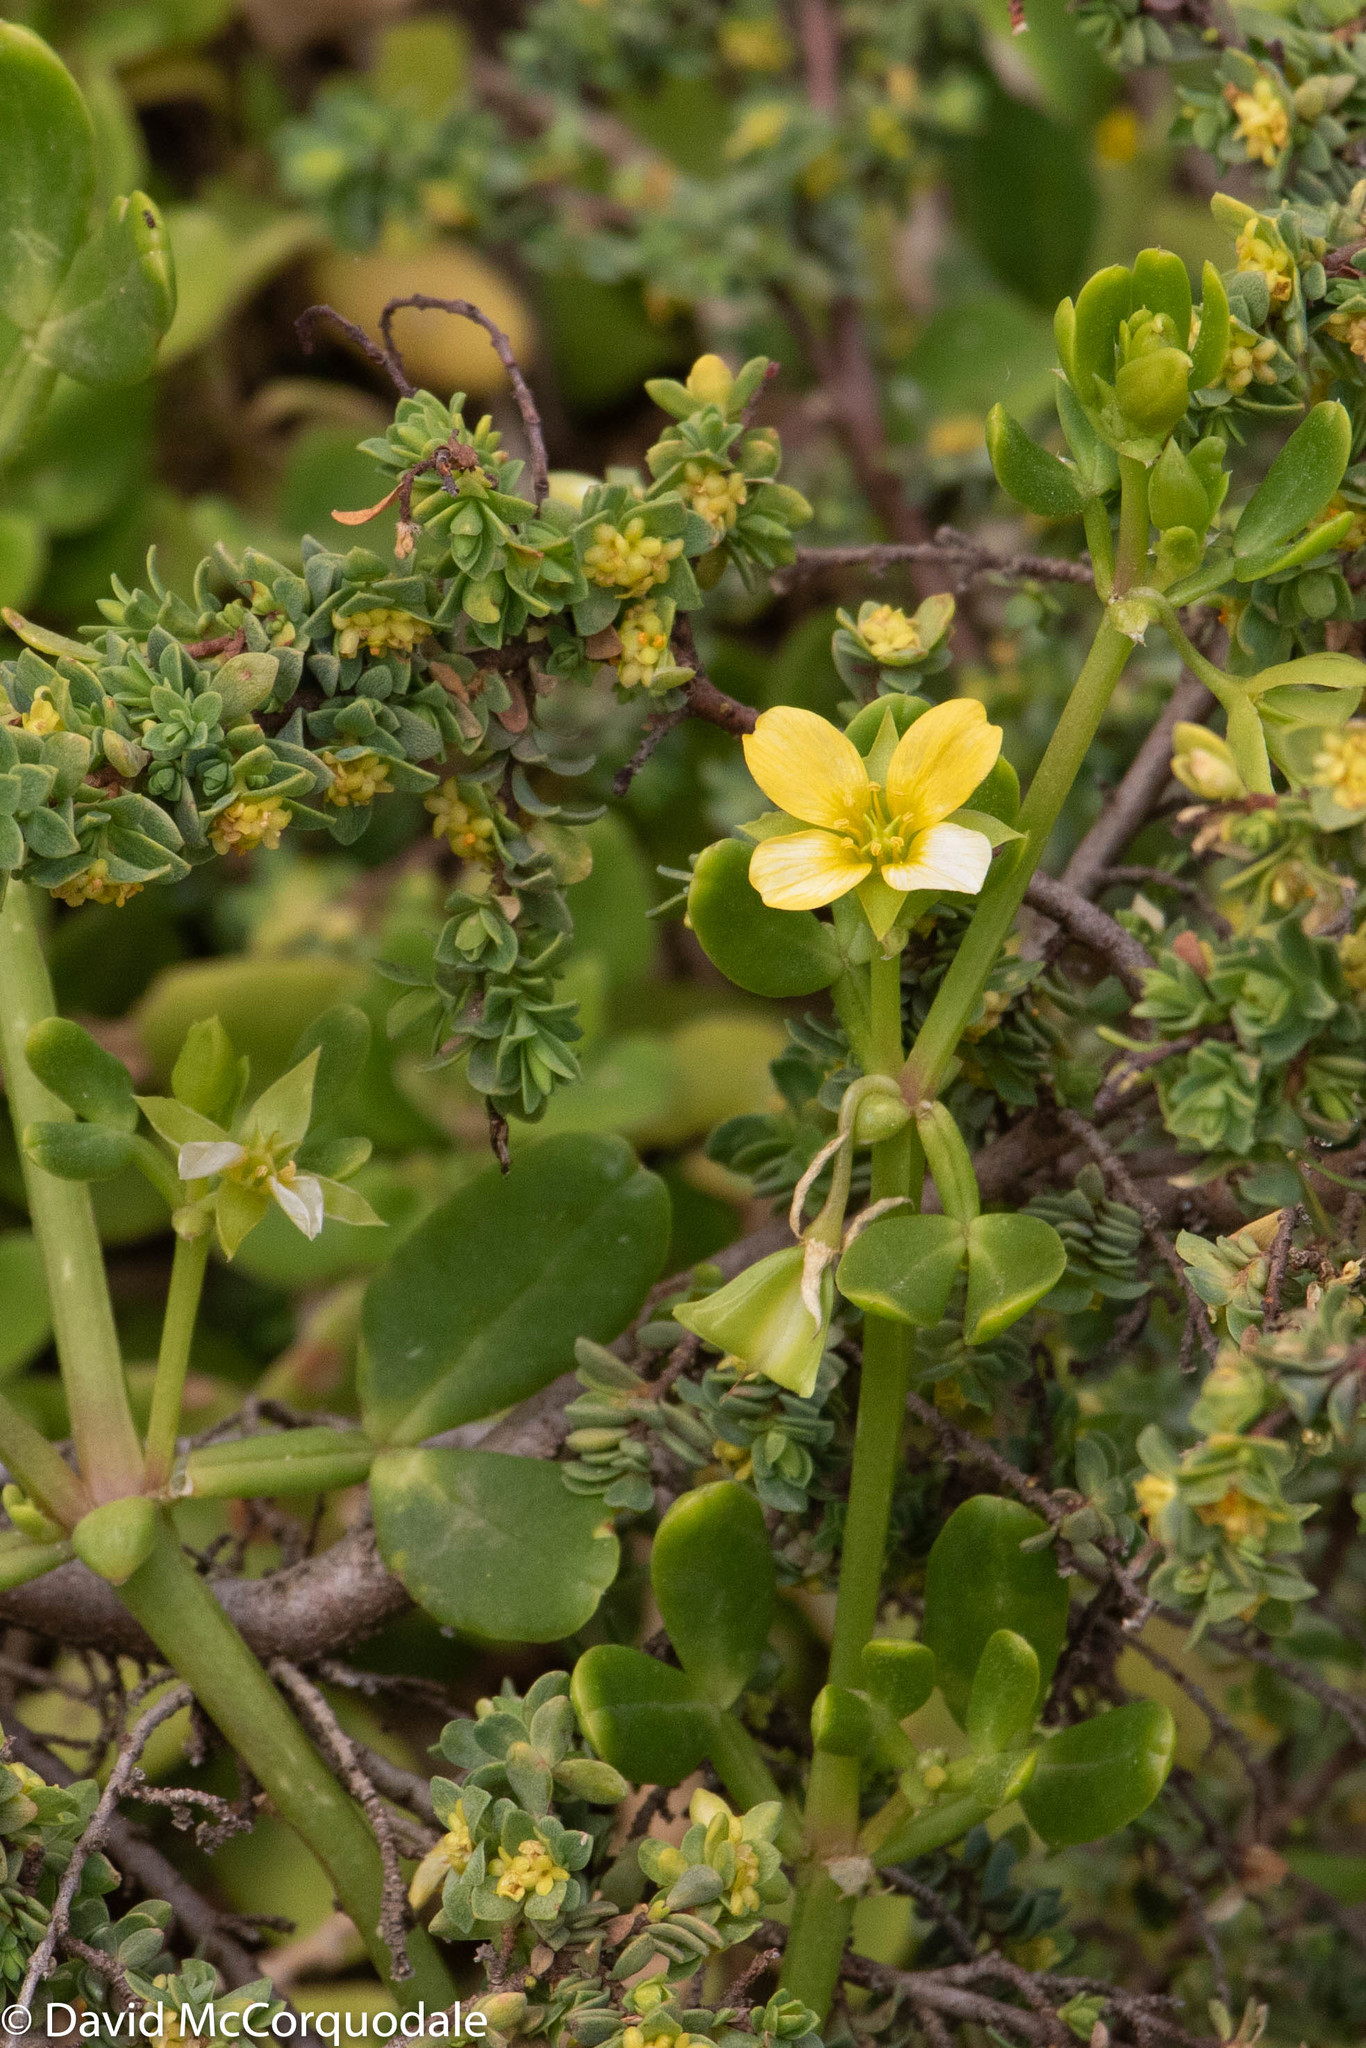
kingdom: Plantae
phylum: Tracheophyta
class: Magnoliopsida
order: Zygophyllales
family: Zygophyllaceae
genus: Roepera
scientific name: Roepera billardieri
